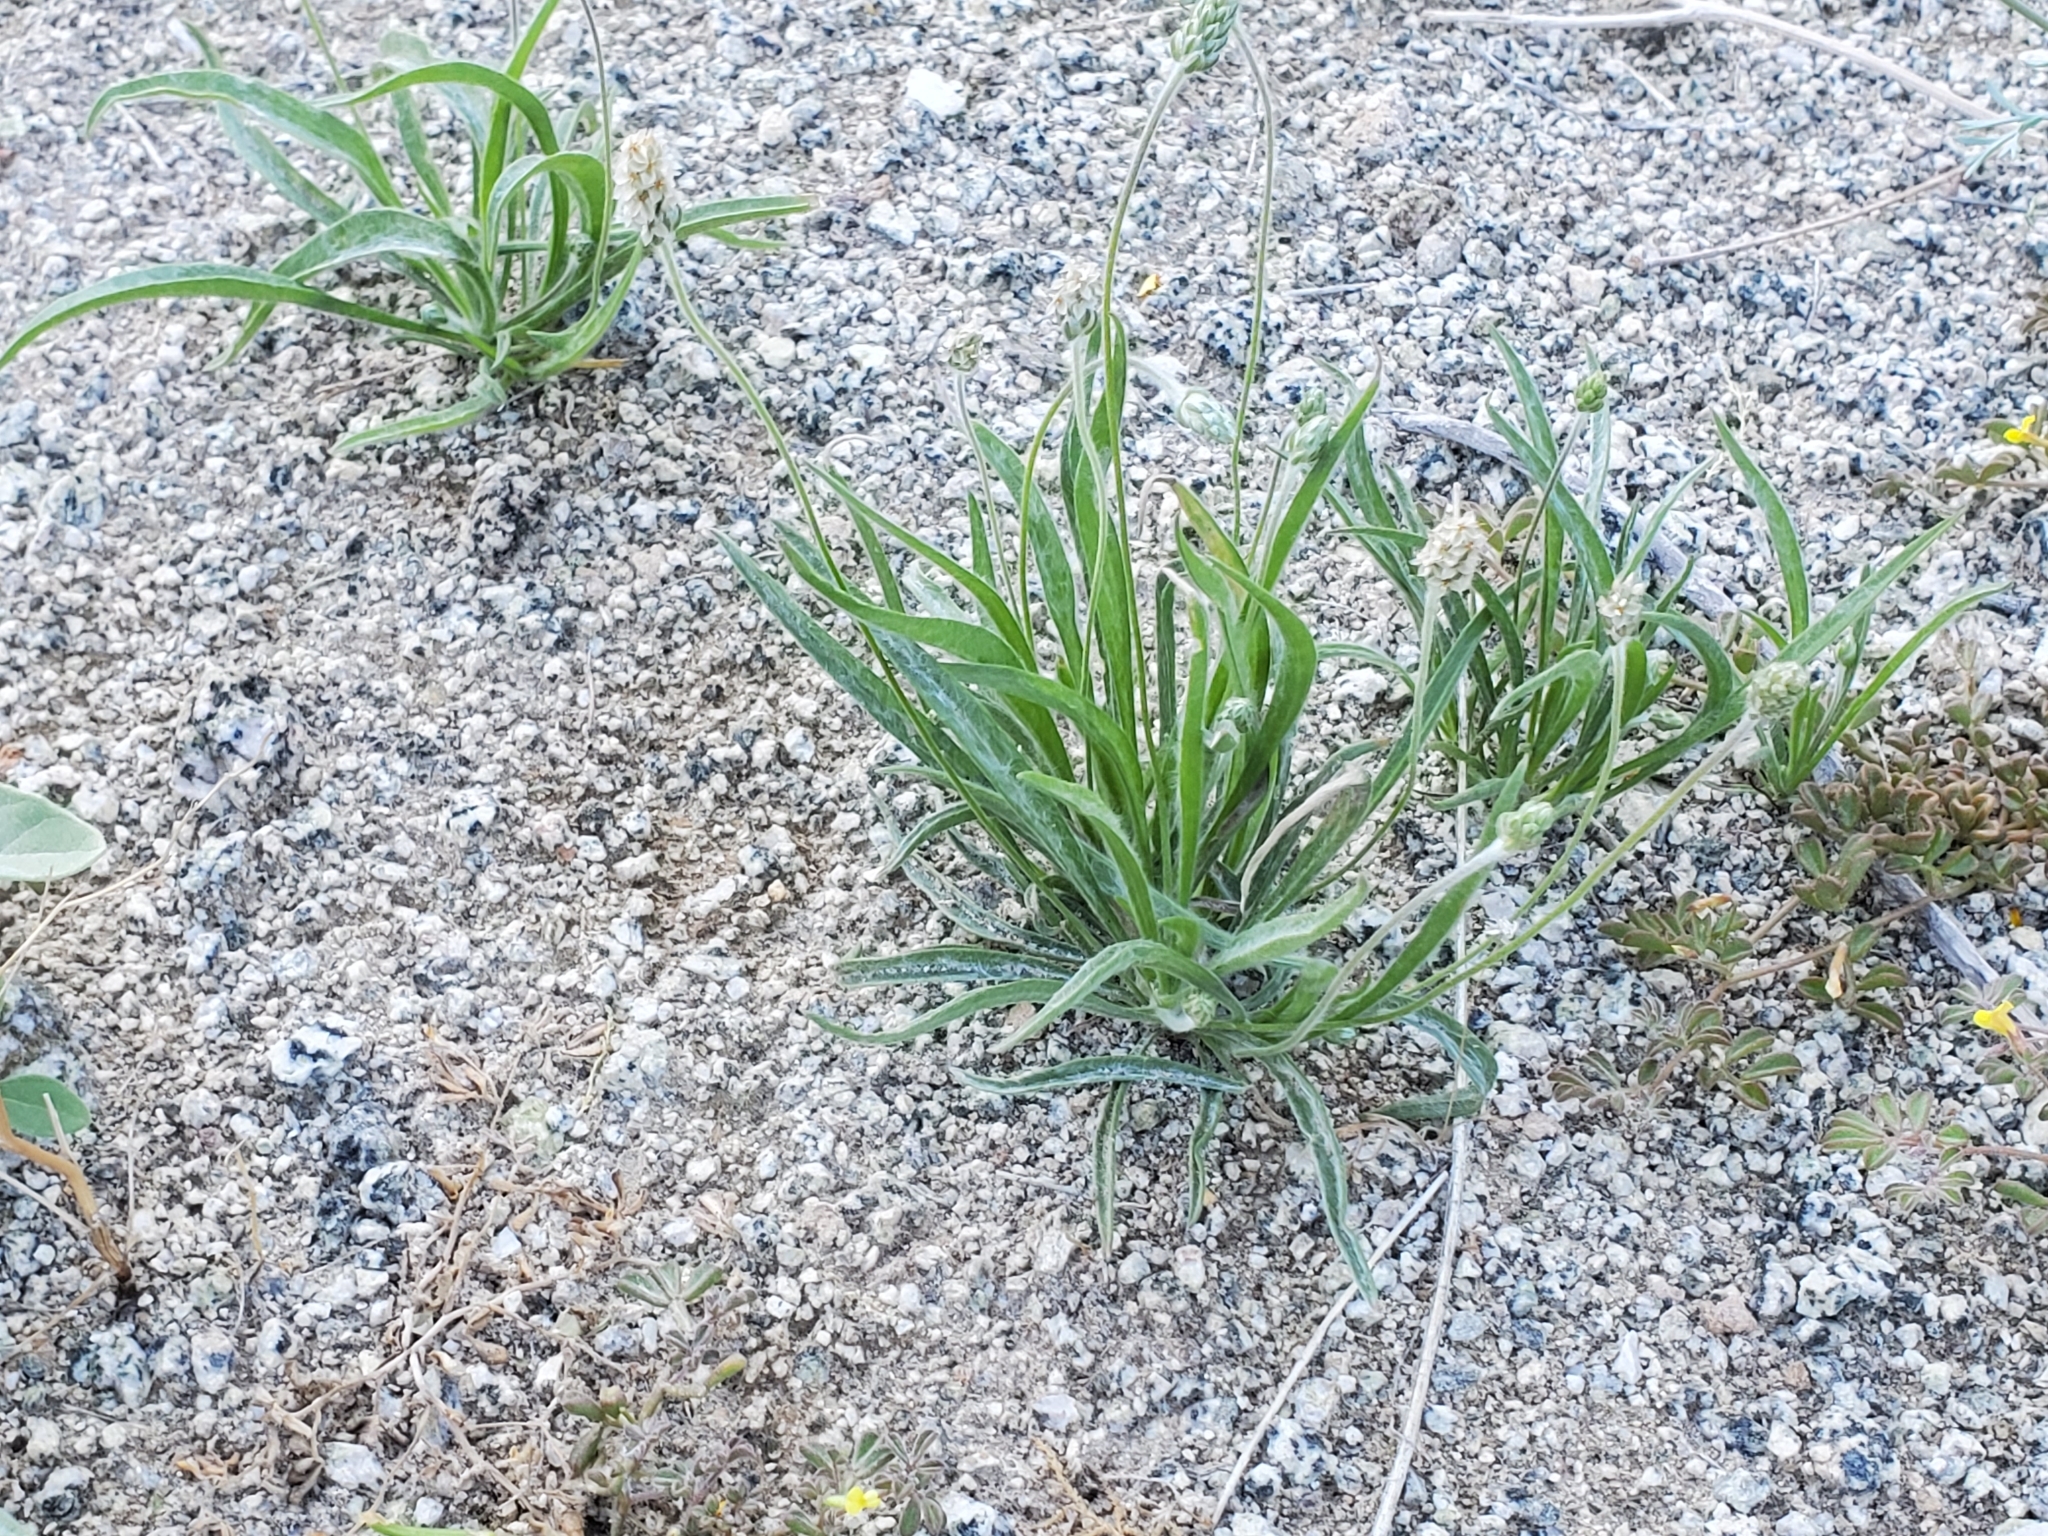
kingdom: Plantae
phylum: Tracheophyta
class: Magnoliopsida
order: Lamiales
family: Plantaginaceae
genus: Plantago
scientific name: Plantago ovata
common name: Blond plantain
